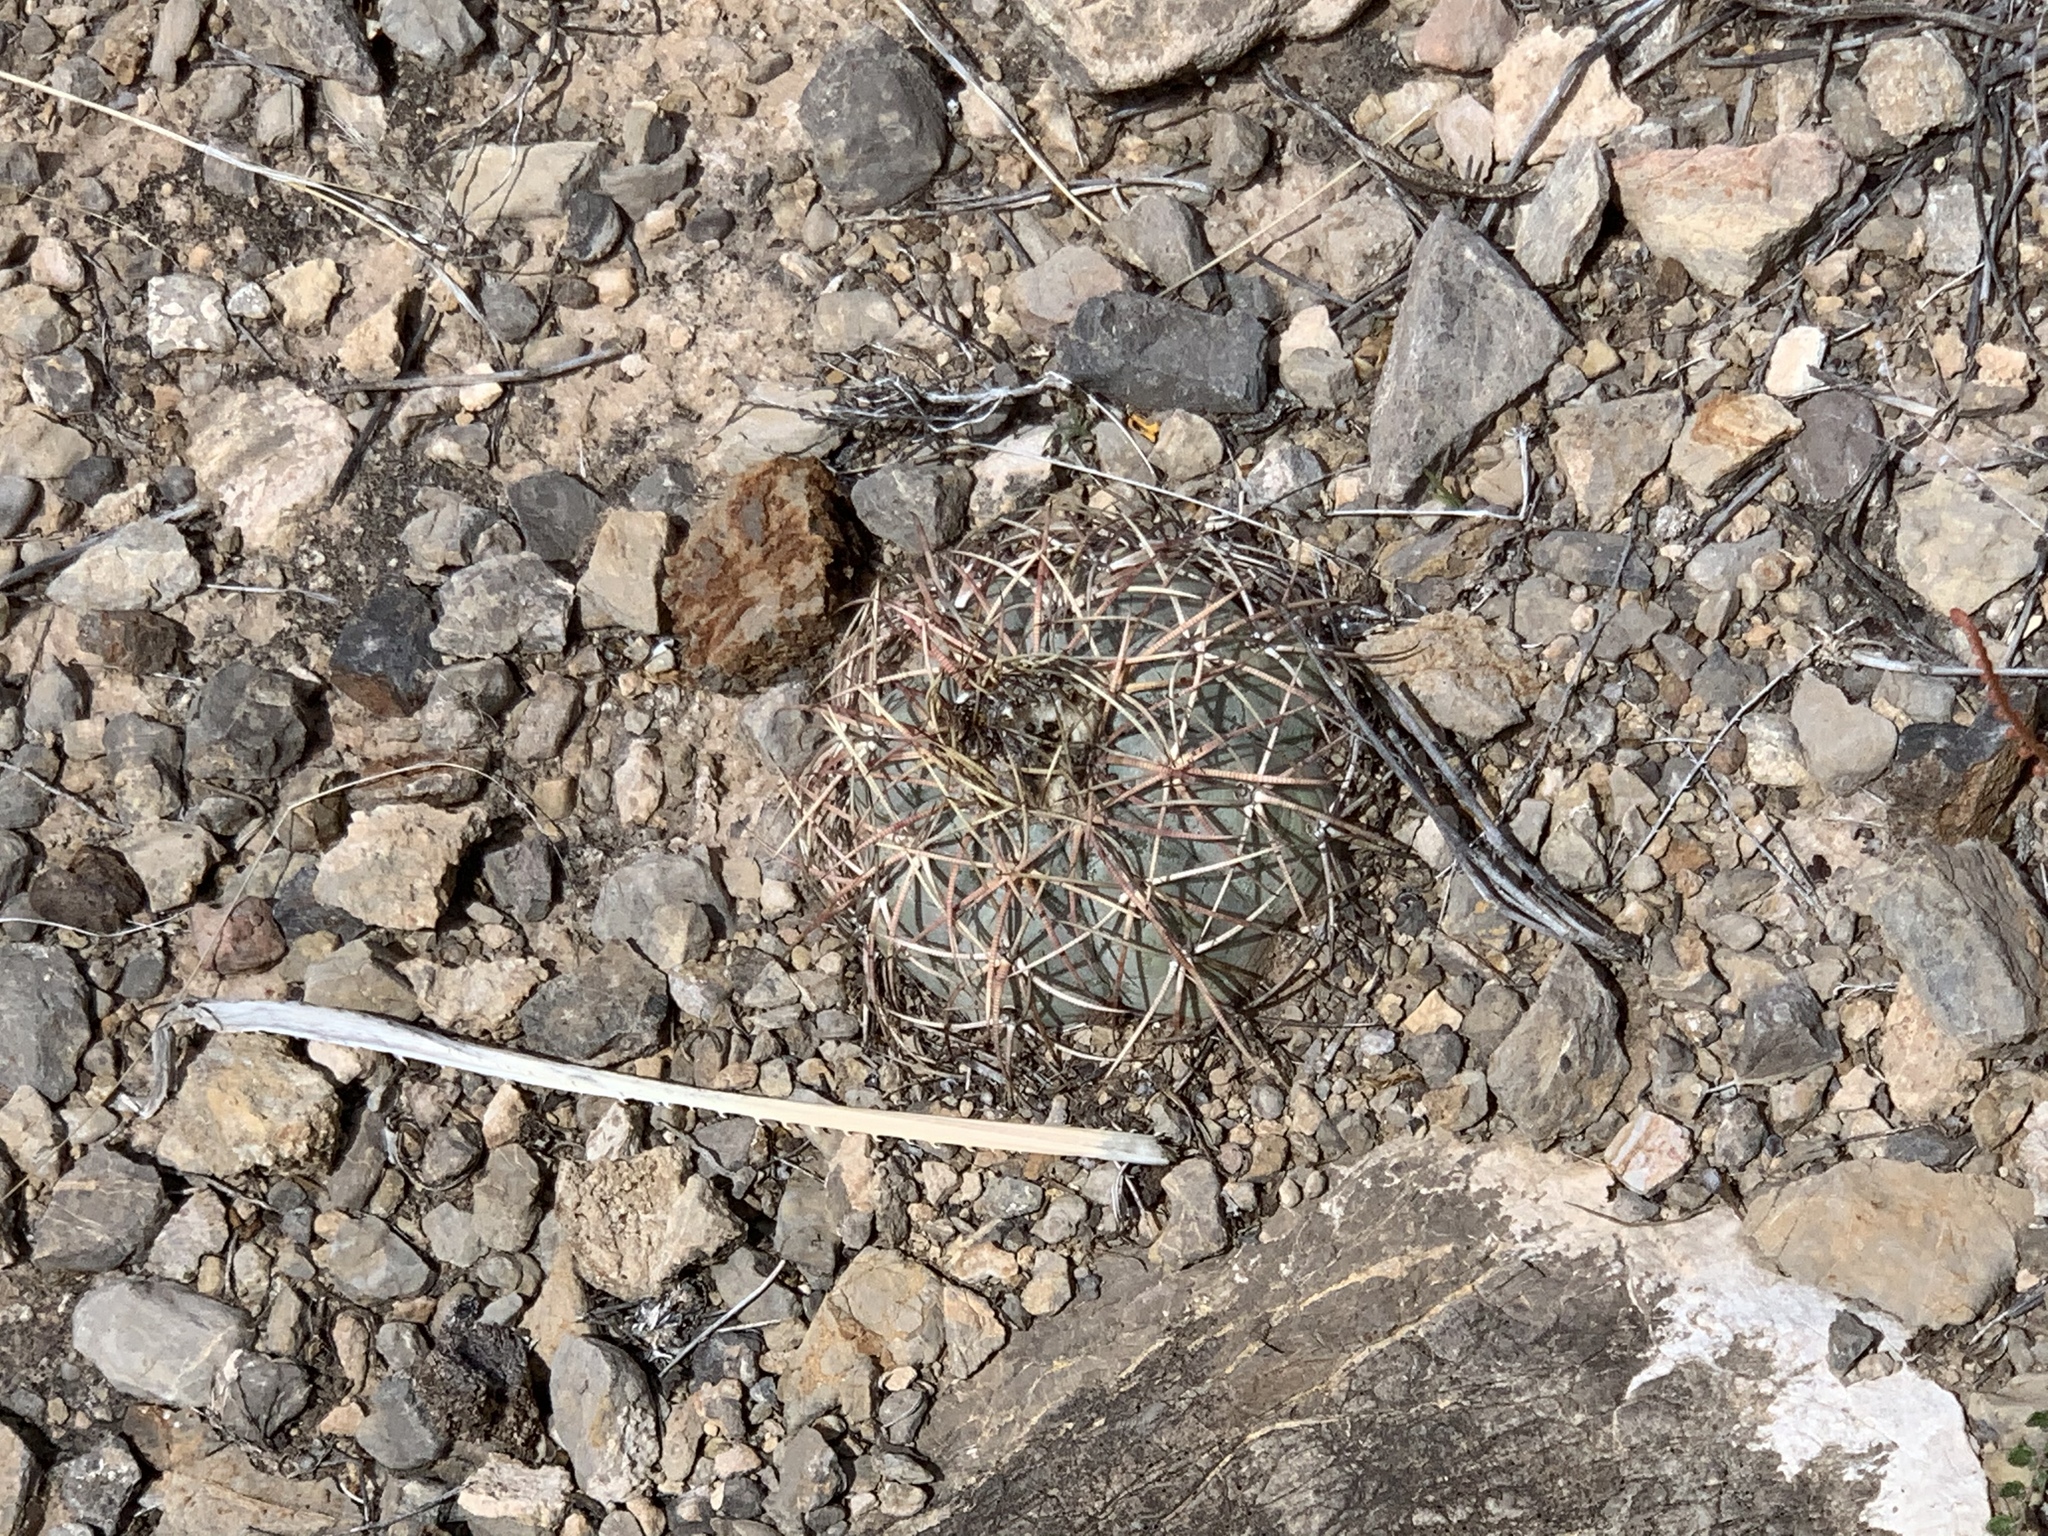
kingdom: Plantae
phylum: Tracheophyta
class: Magnoliopsida
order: Caryophyllales
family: Cactaceae
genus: Echinocactus
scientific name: Echinocactus horizonthalonius
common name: Devilshead
